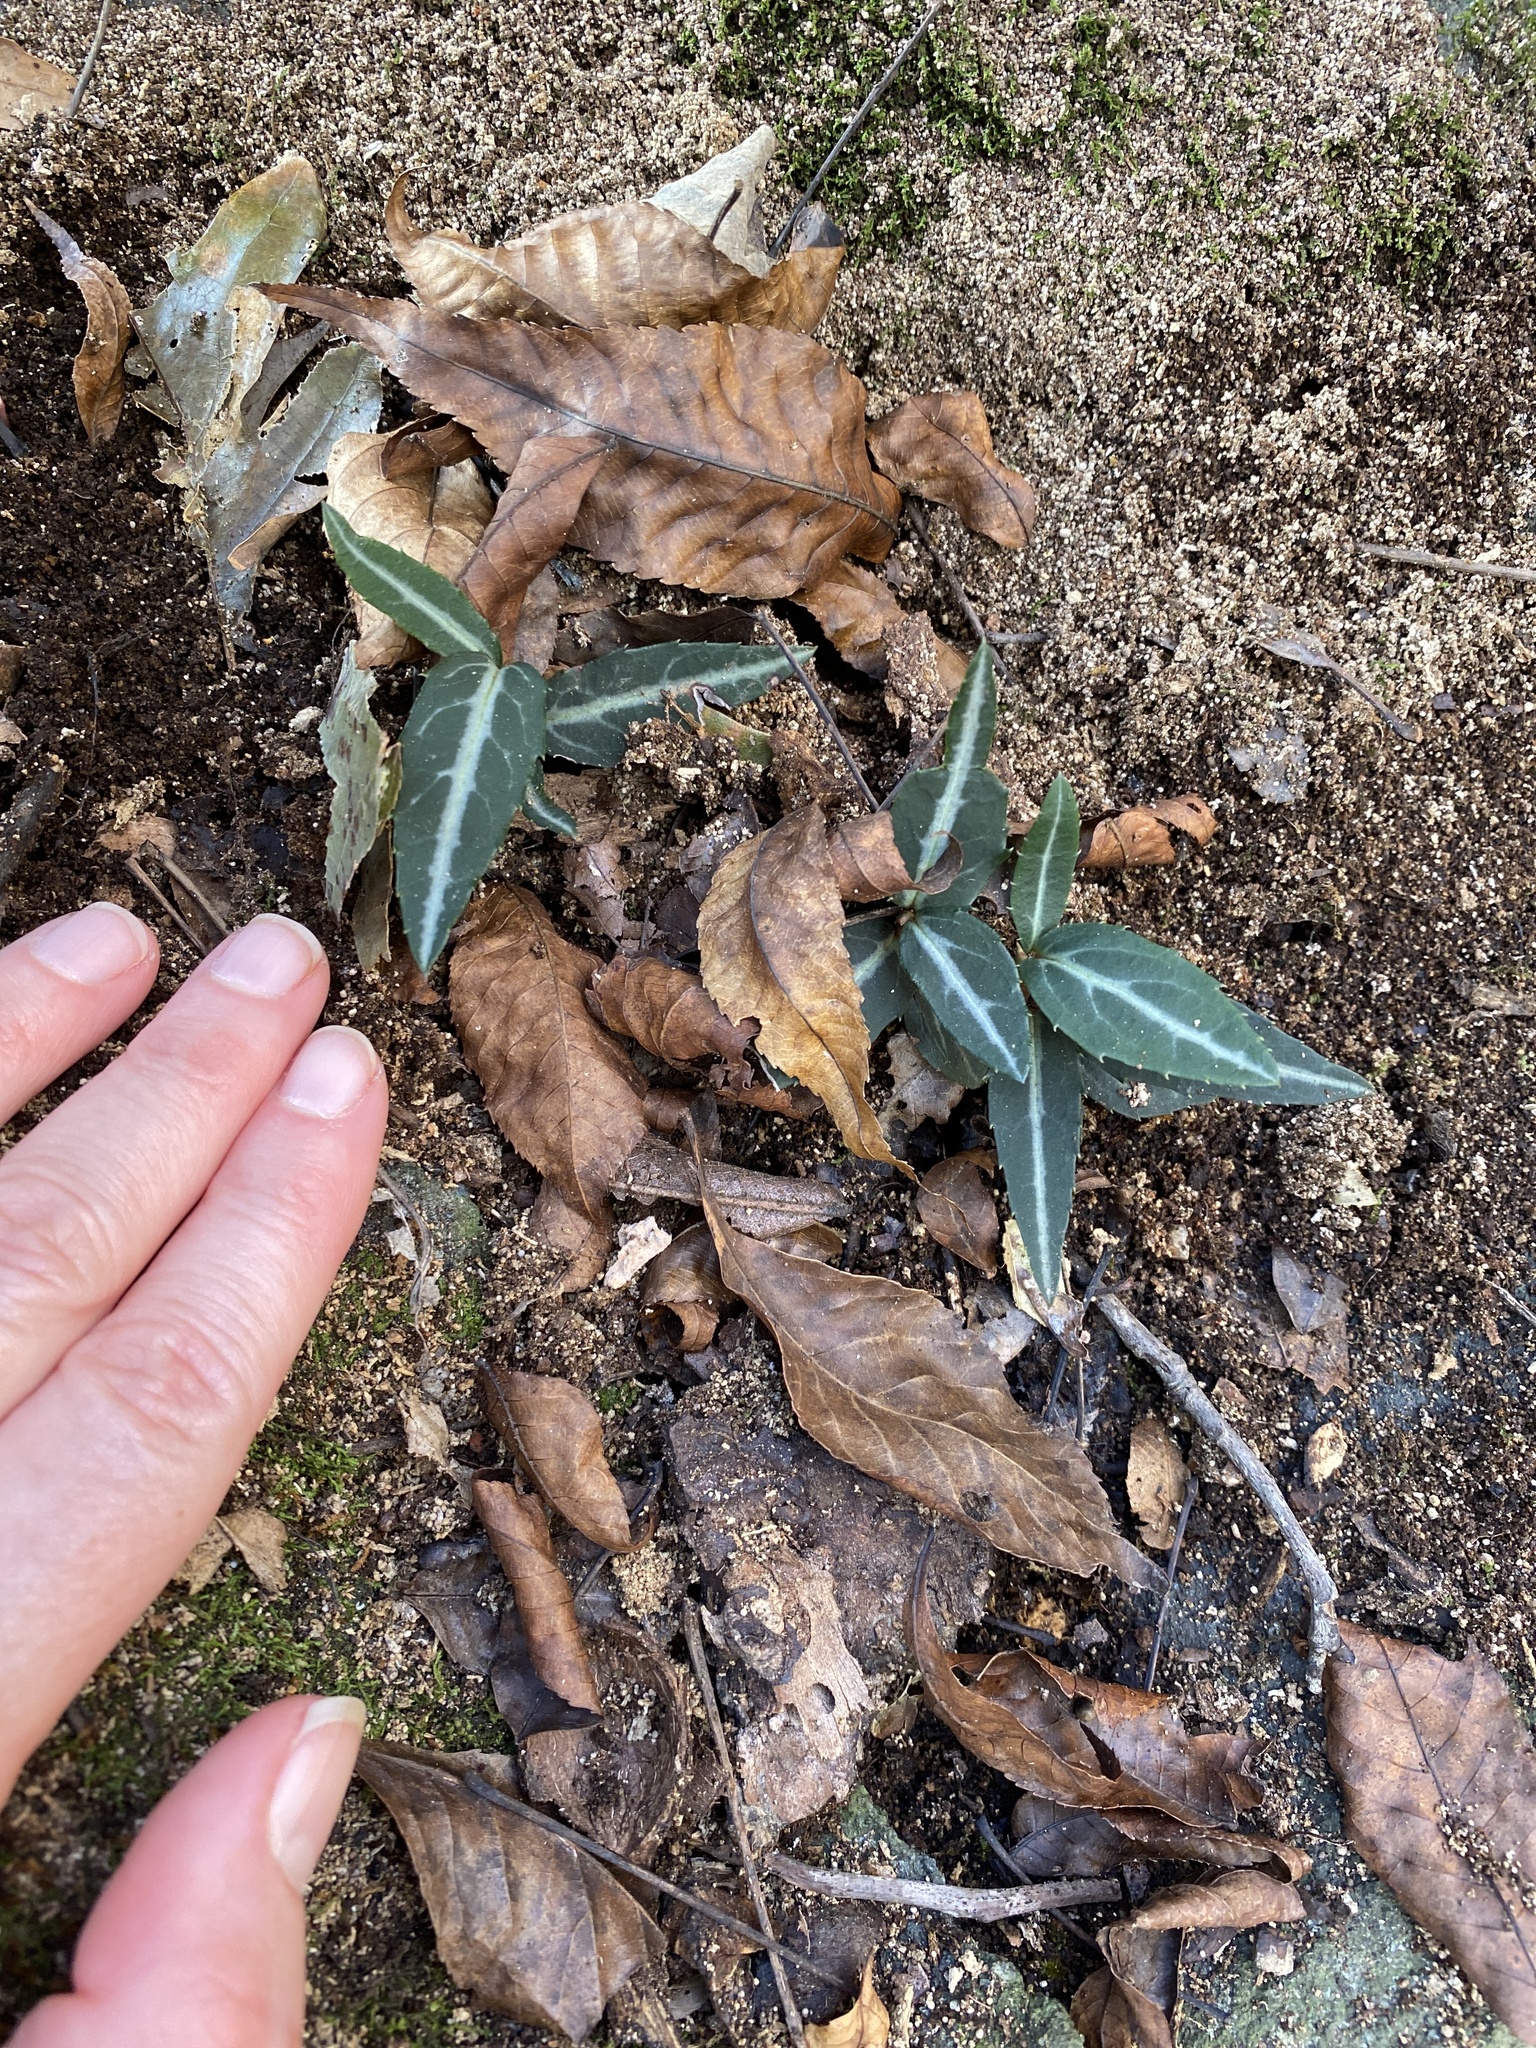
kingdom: Plantae
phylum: Tracheophyta
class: Magnoliopsida
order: Ericales
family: Ericaceae
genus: Chimaphila
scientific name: Chimaphila maculata
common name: Spotted pipsissewa
